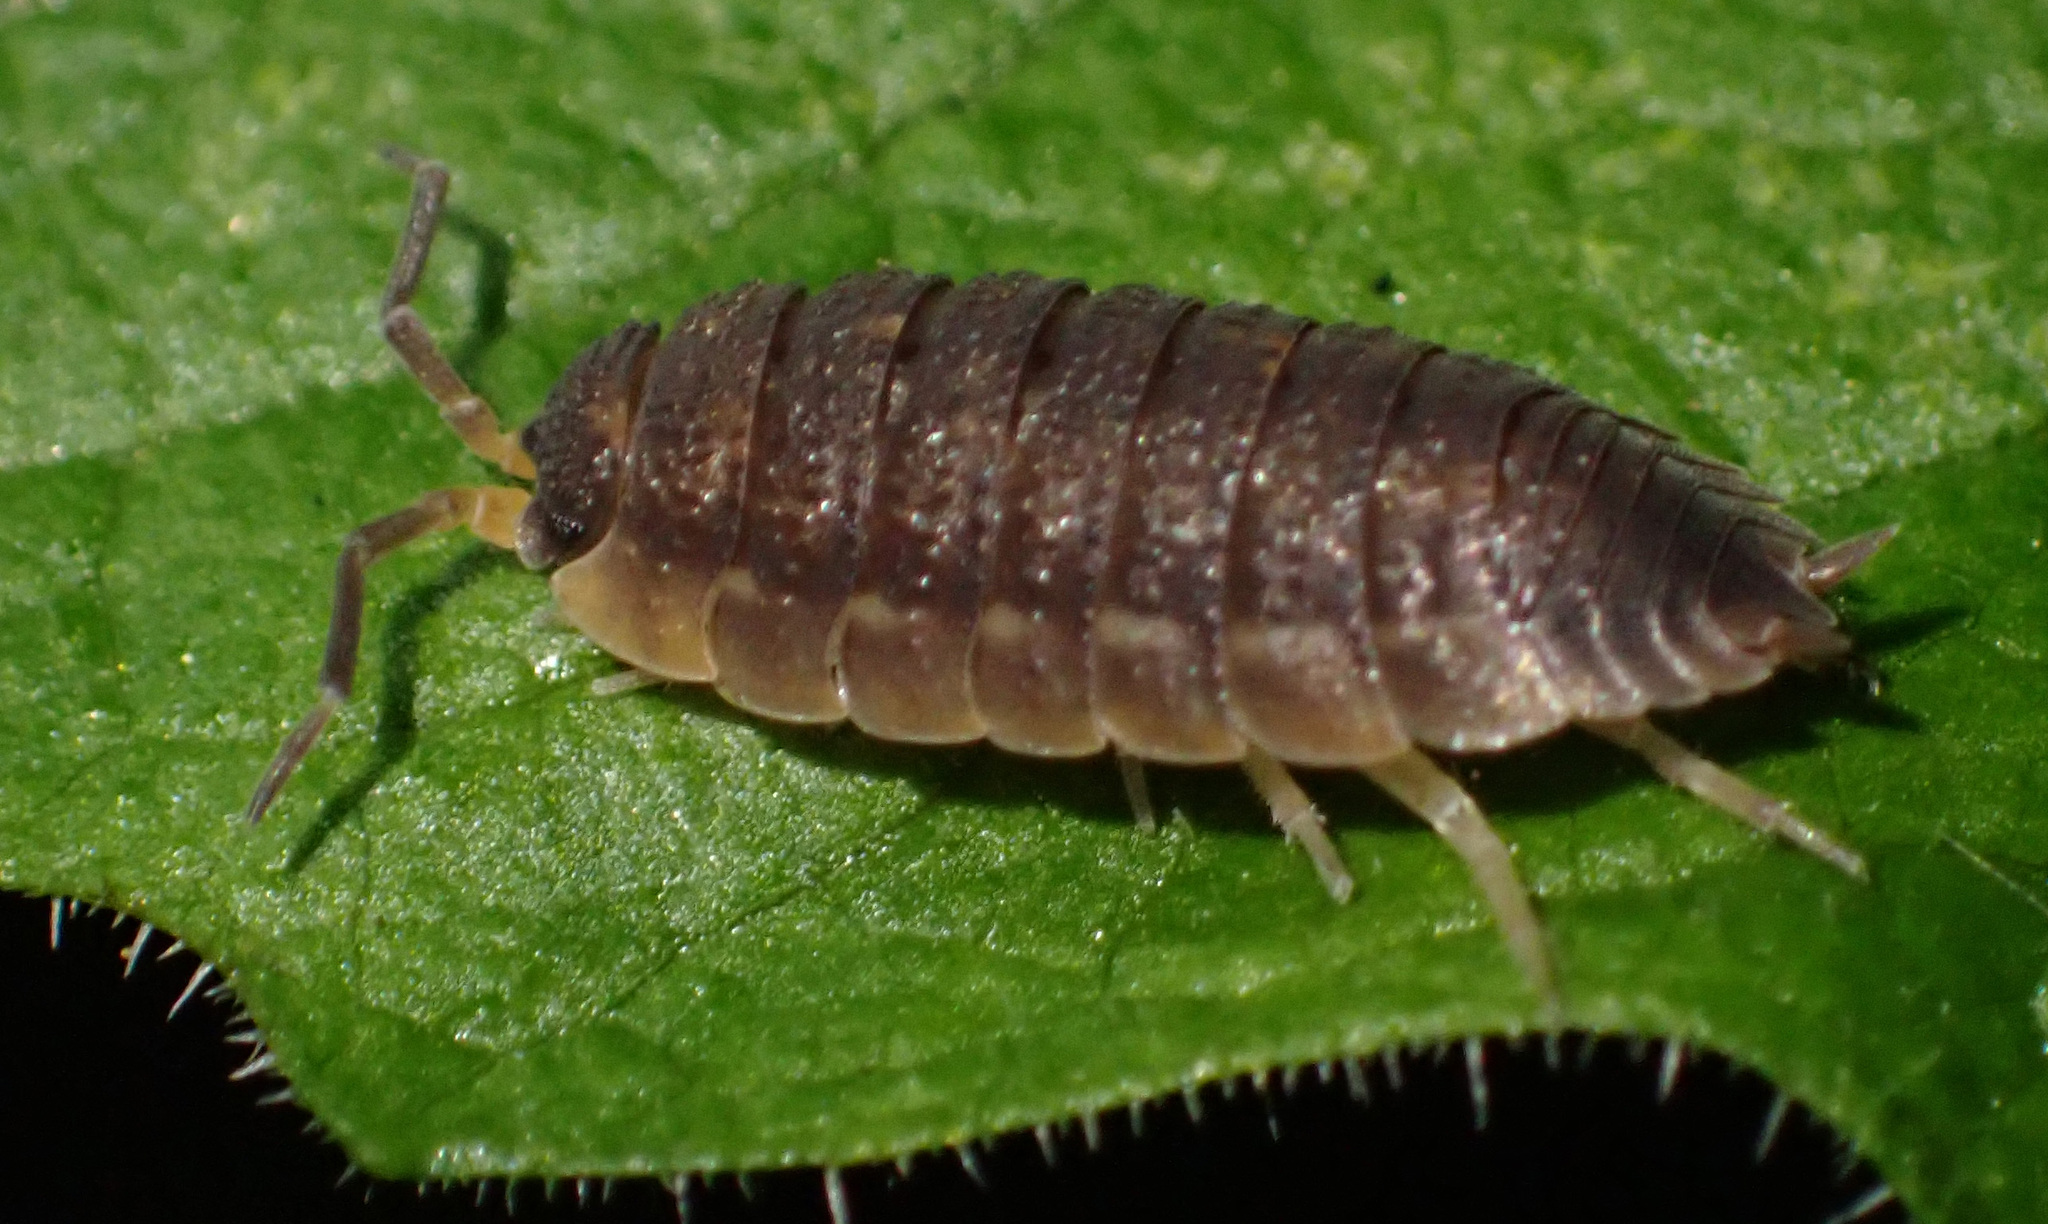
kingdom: Animalia
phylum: Arthropoda
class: Malacostraca
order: Isopoda
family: Porcellionidae
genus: Porcellio
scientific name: Porcellio scaber
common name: Common rough woodlouse
